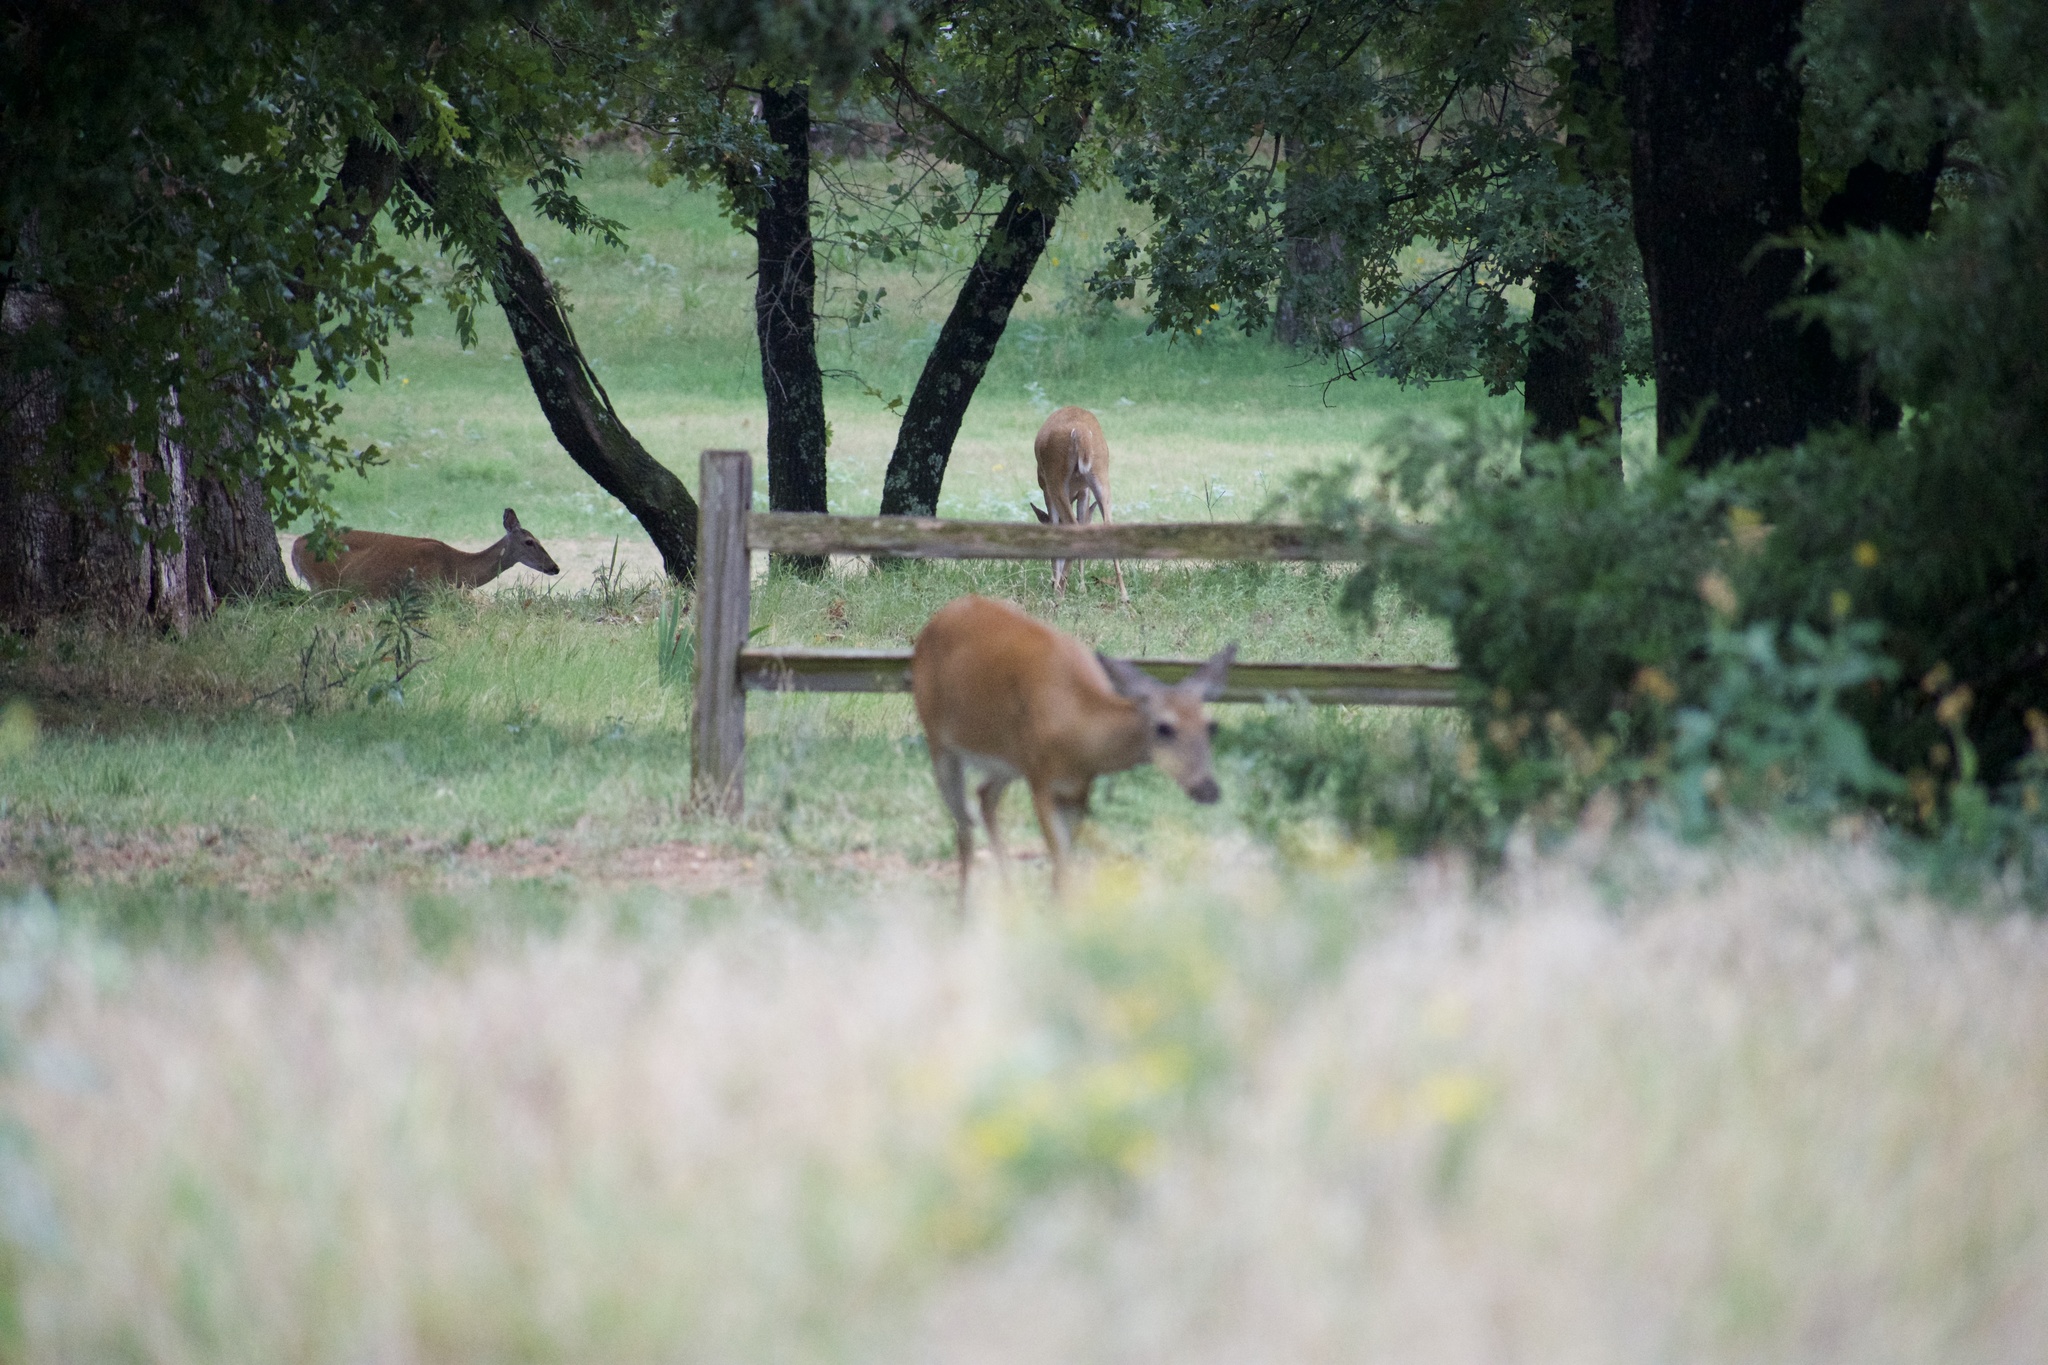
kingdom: Animalia
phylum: Chordata
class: Mammalia
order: Artiodactyla
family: Cervidae
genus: Odocoileus
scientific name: Odocoileus virginianus
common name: White-tailed deer
